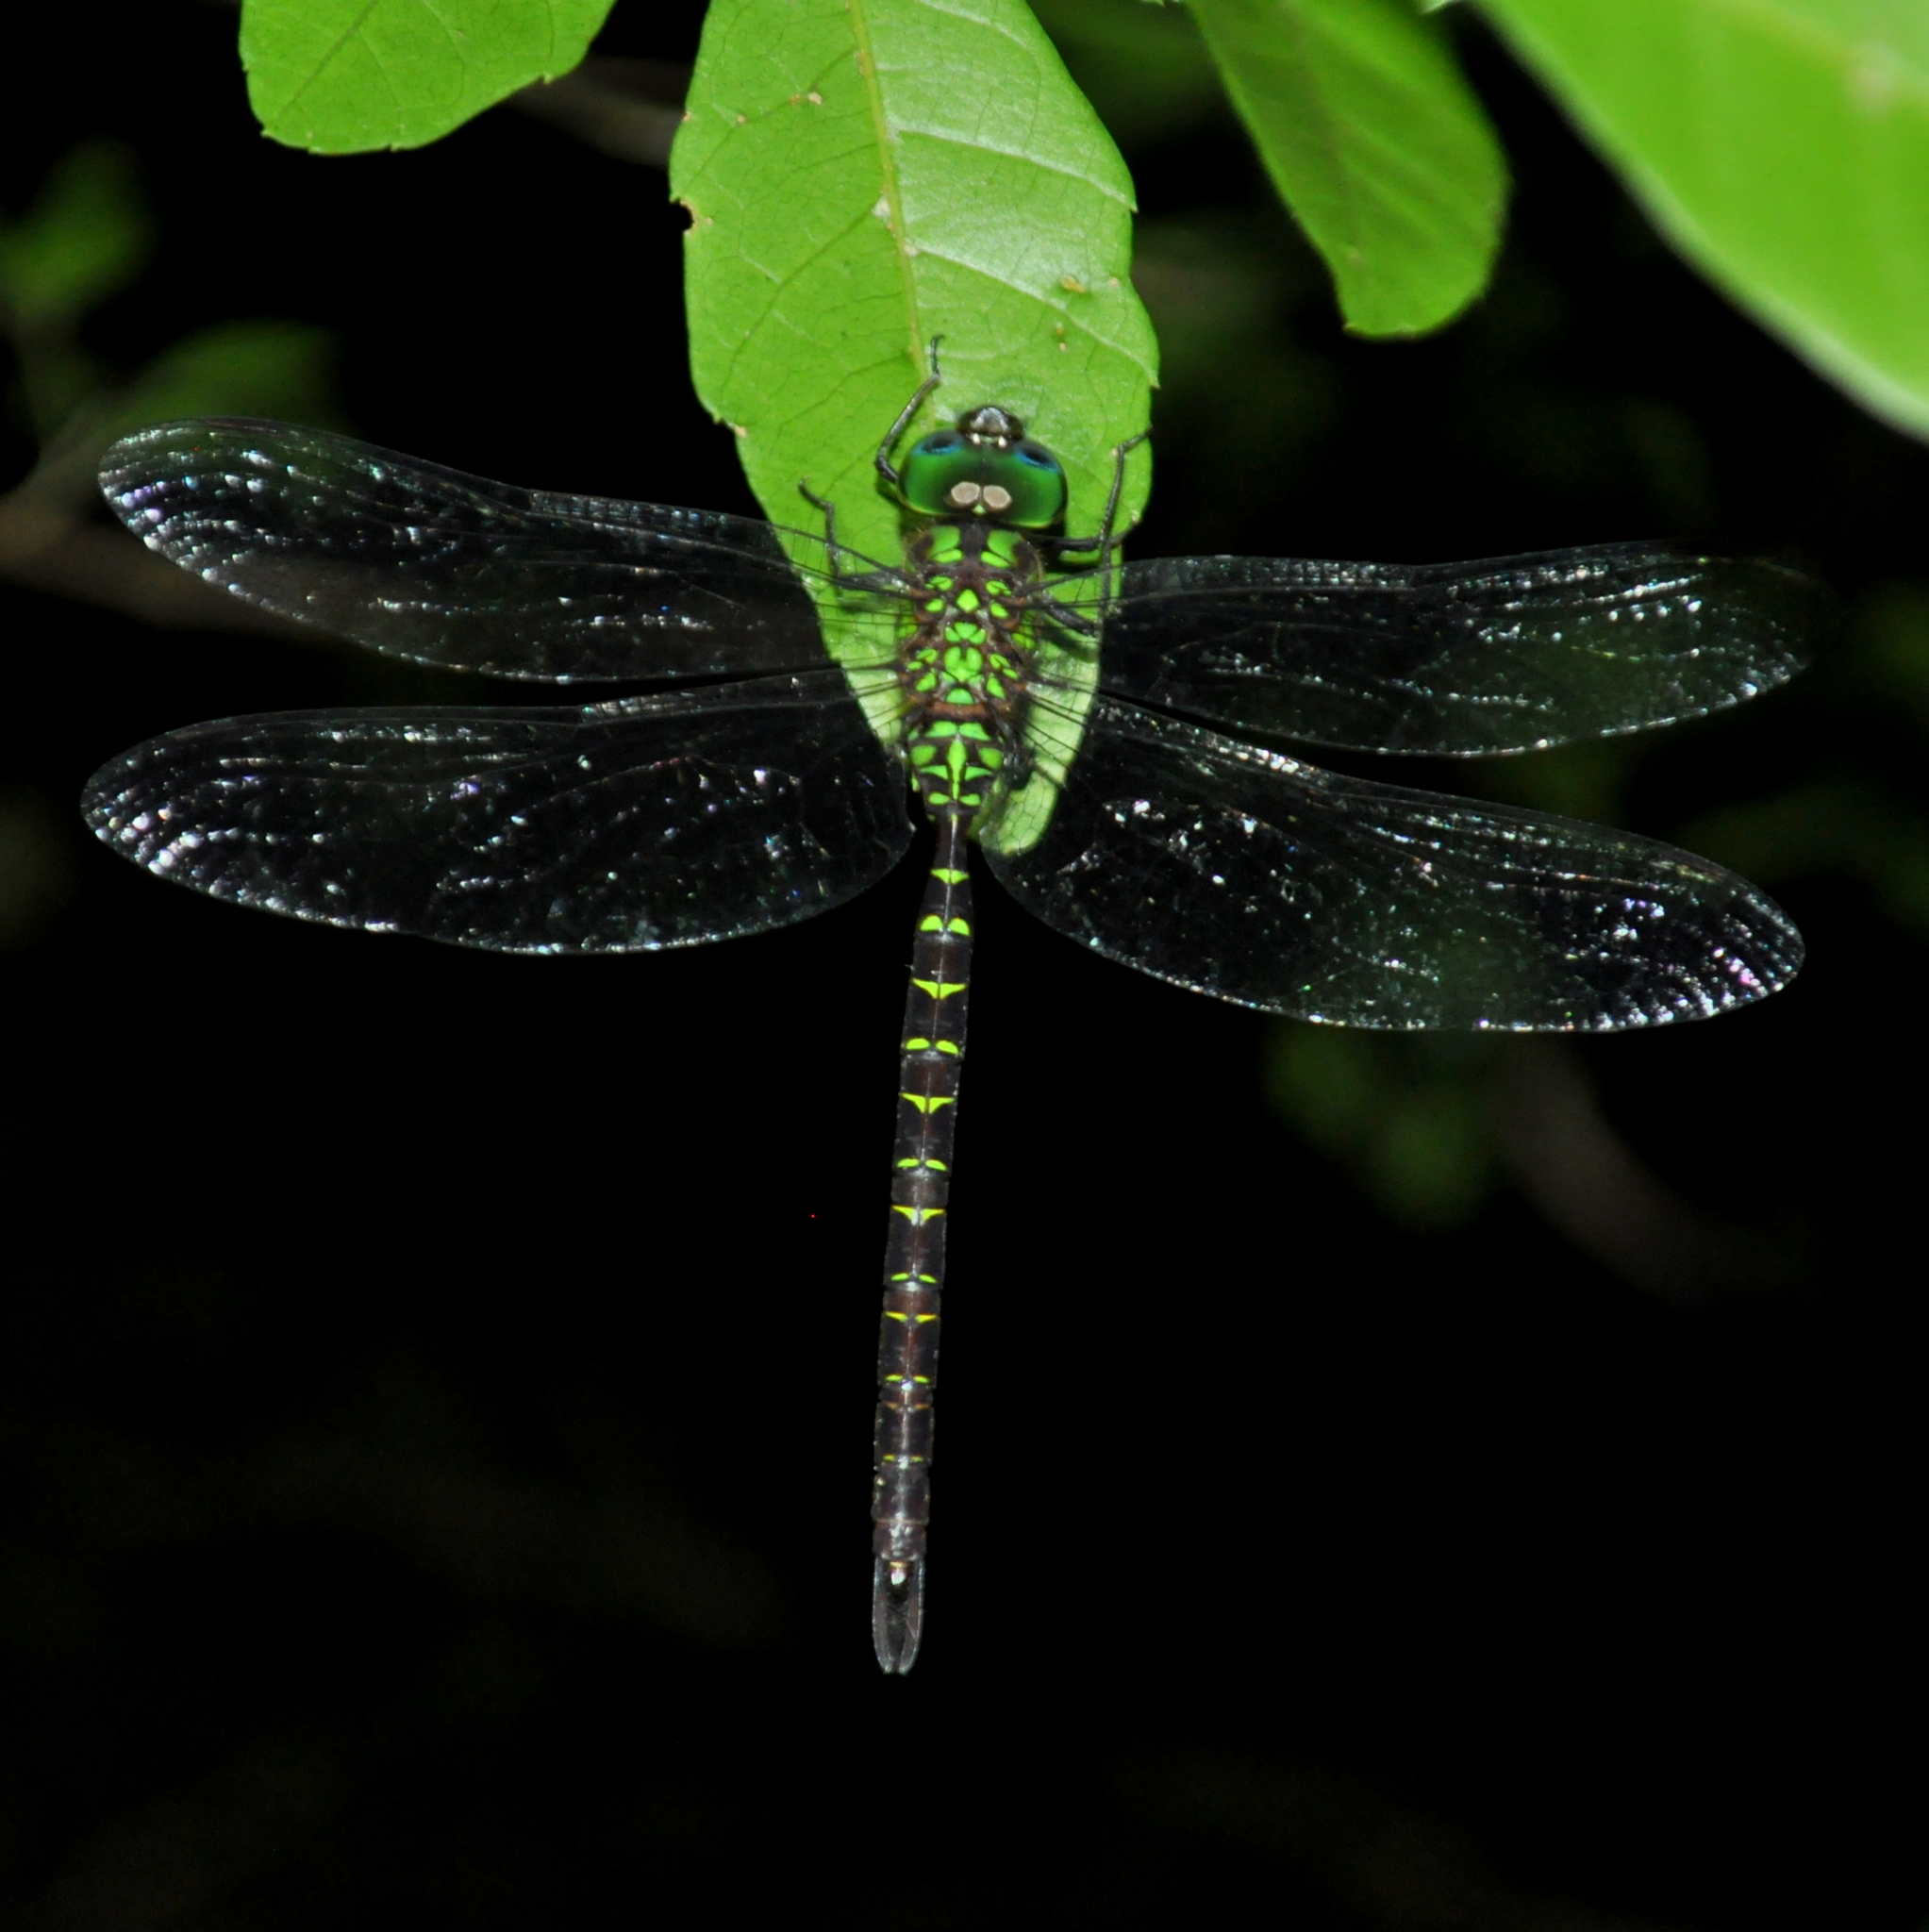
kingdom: Animalia
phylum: Arthropoda
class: Insecta
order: Odonata
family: Aeshnidae
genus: Triacanthagyna
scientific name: Triacanthagyna nympha
